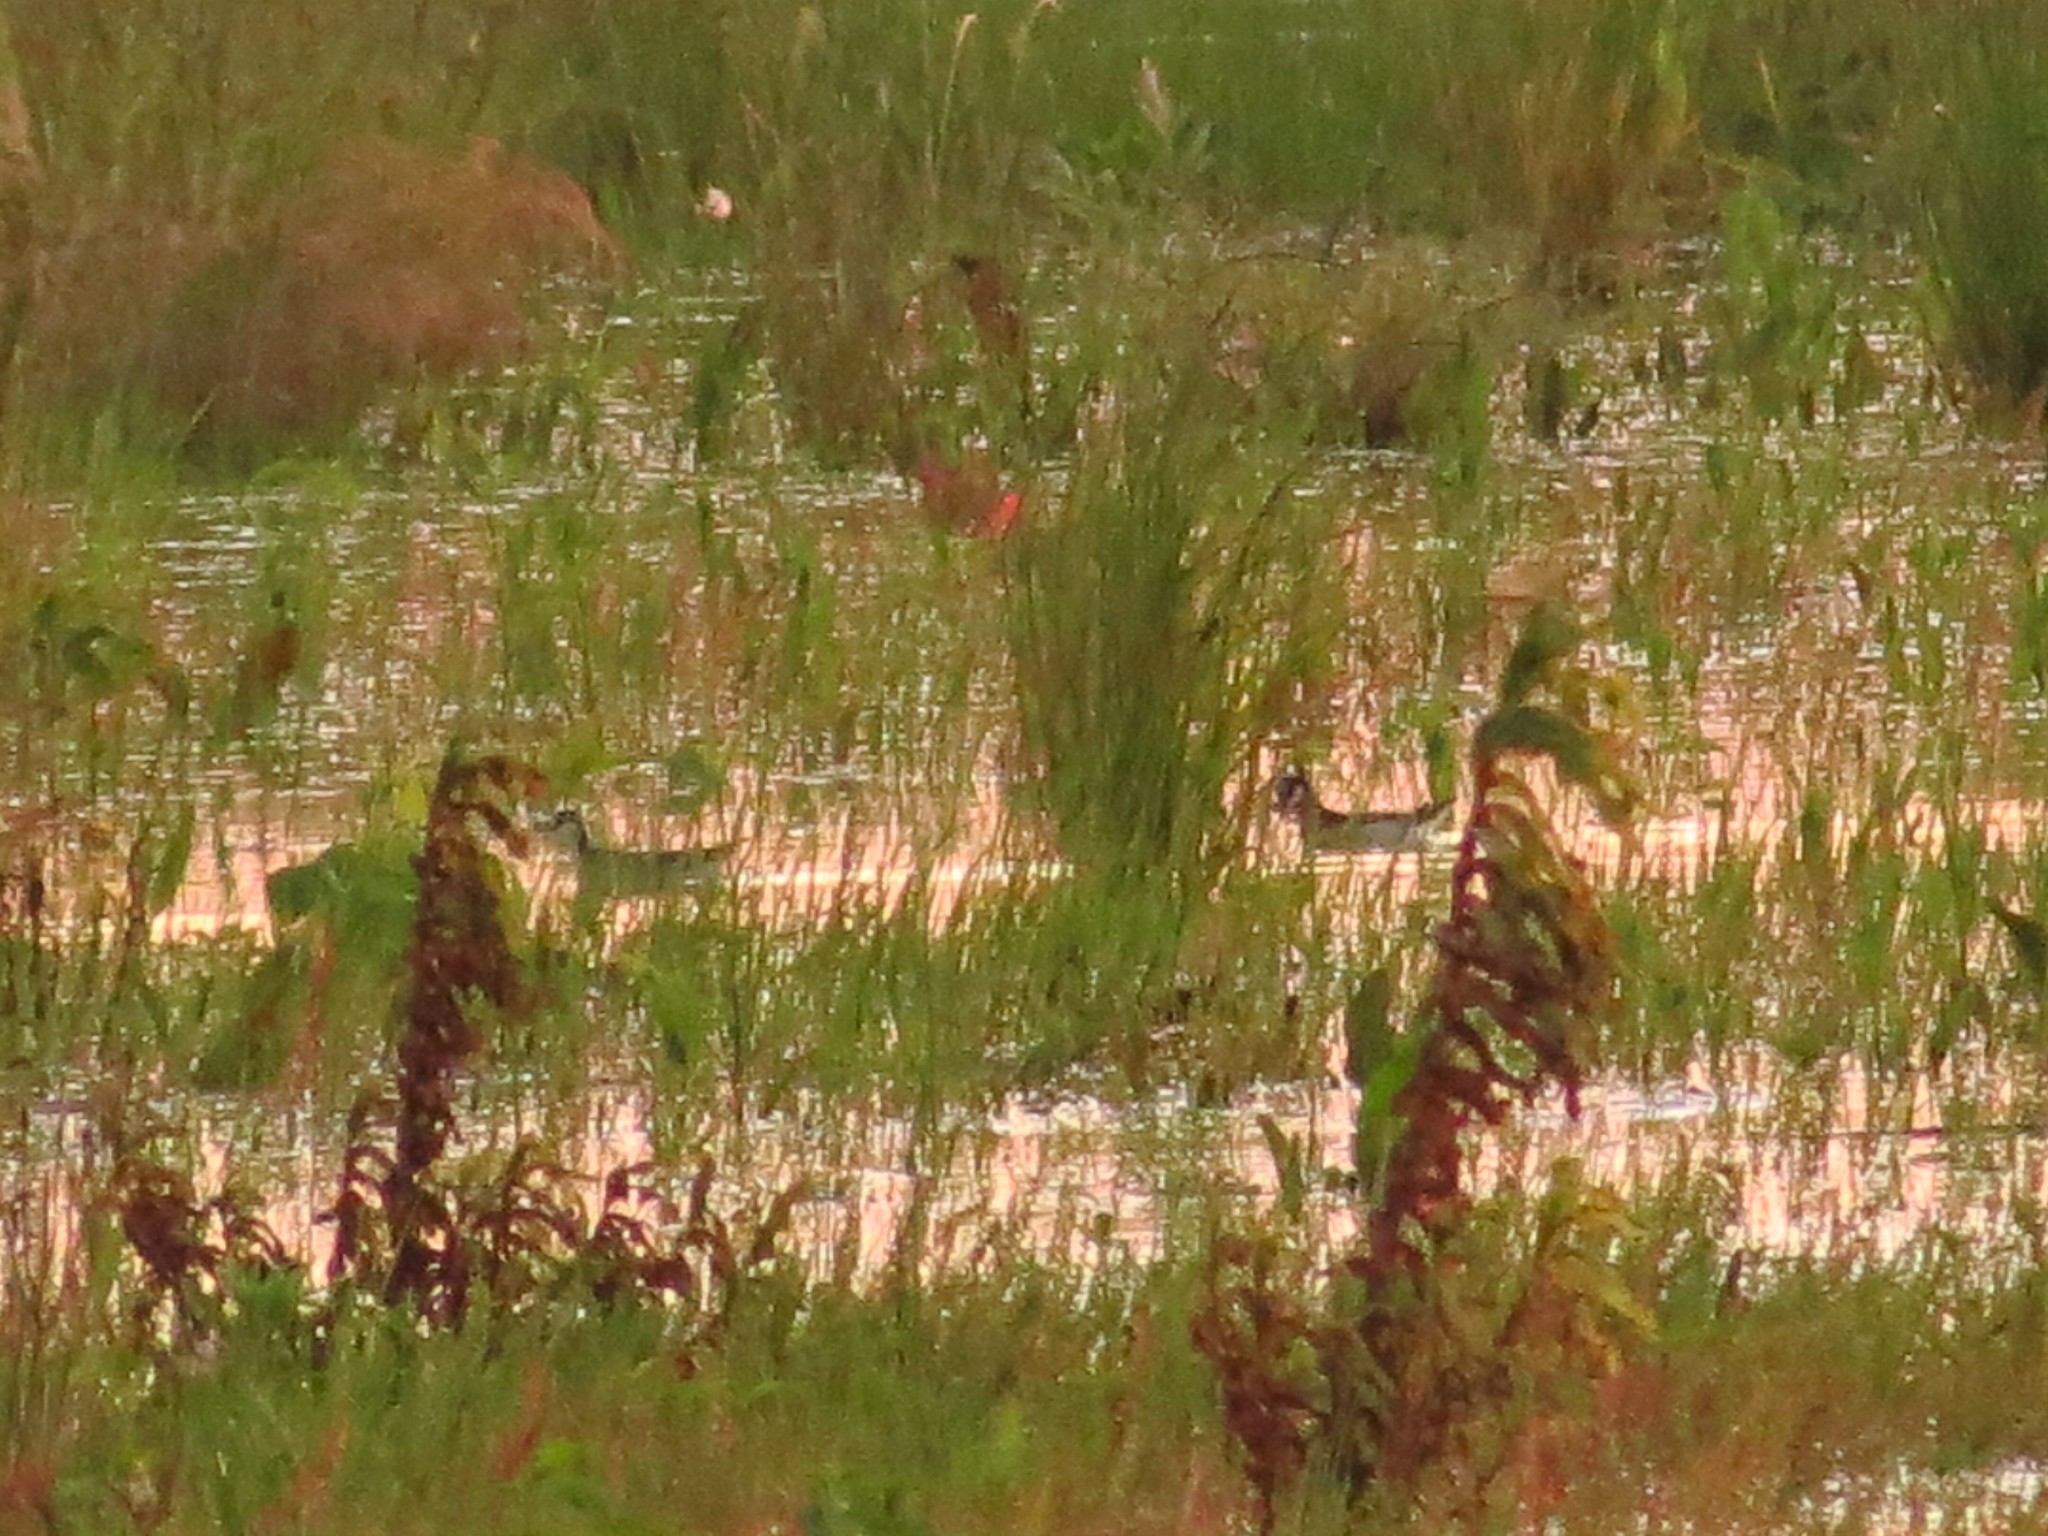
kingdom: Animalia
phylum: Chordata
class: Aves
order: Charadriiformes
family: Scolopacidae
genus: Phalaropus
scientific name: Phalaropus tricolor
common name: Wilson's phalarope
